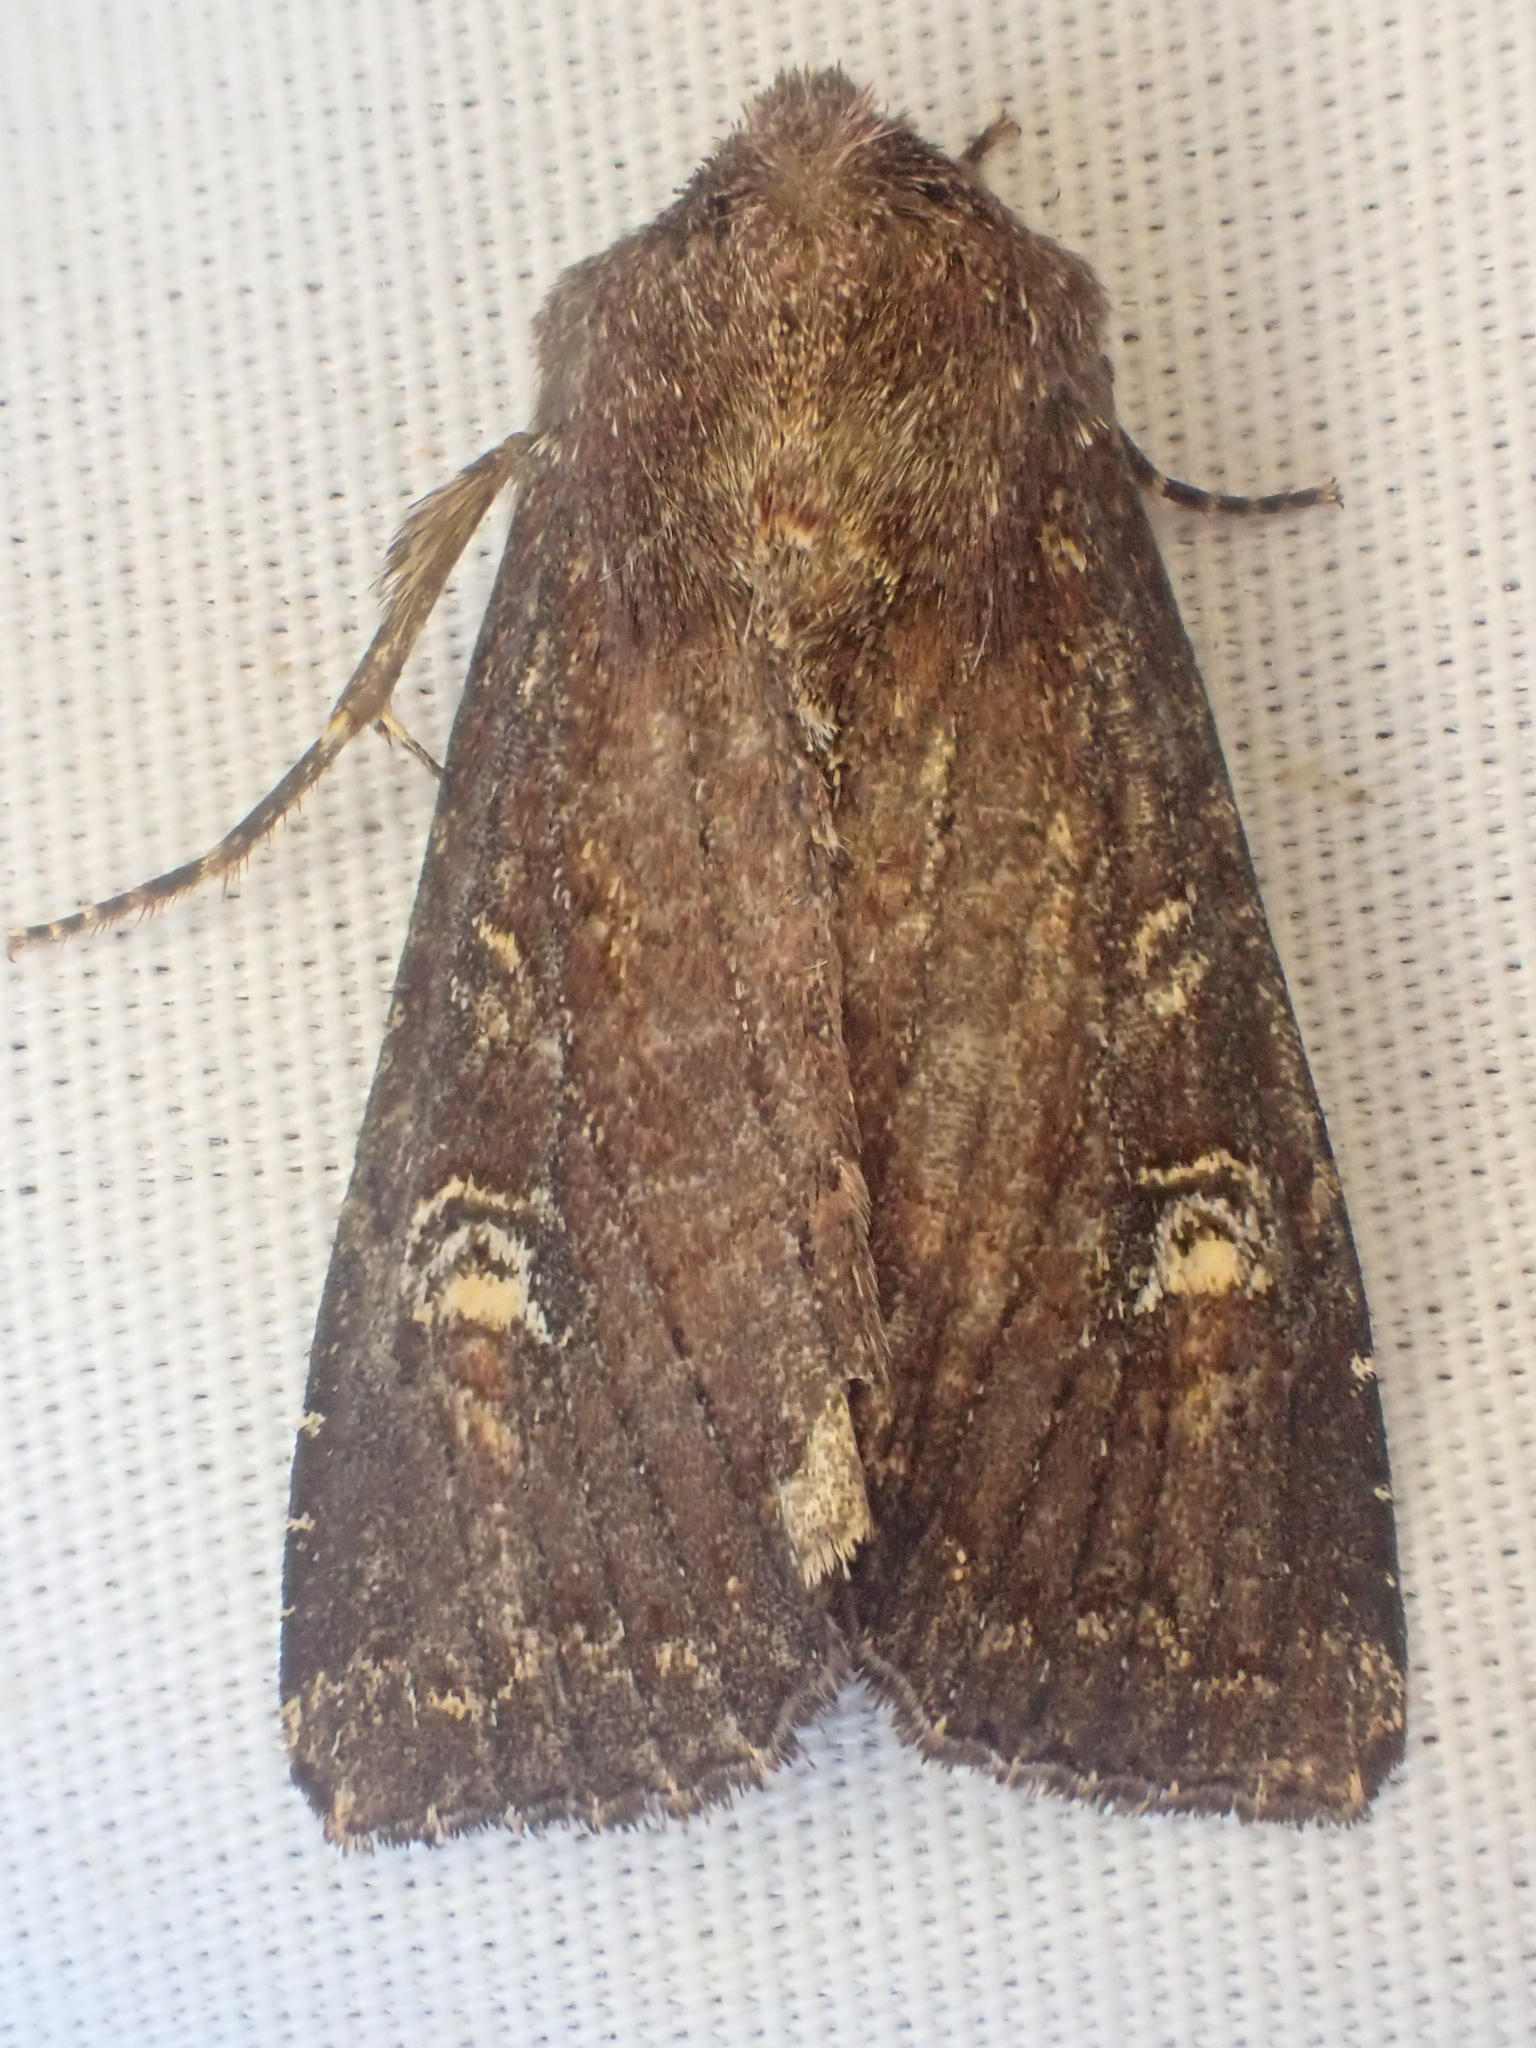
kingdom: Animalia
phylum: Arthropoda
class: Insecta
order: Lepidoptera
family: Noctuidae
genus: Apamea
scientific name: Apamea cogitata
